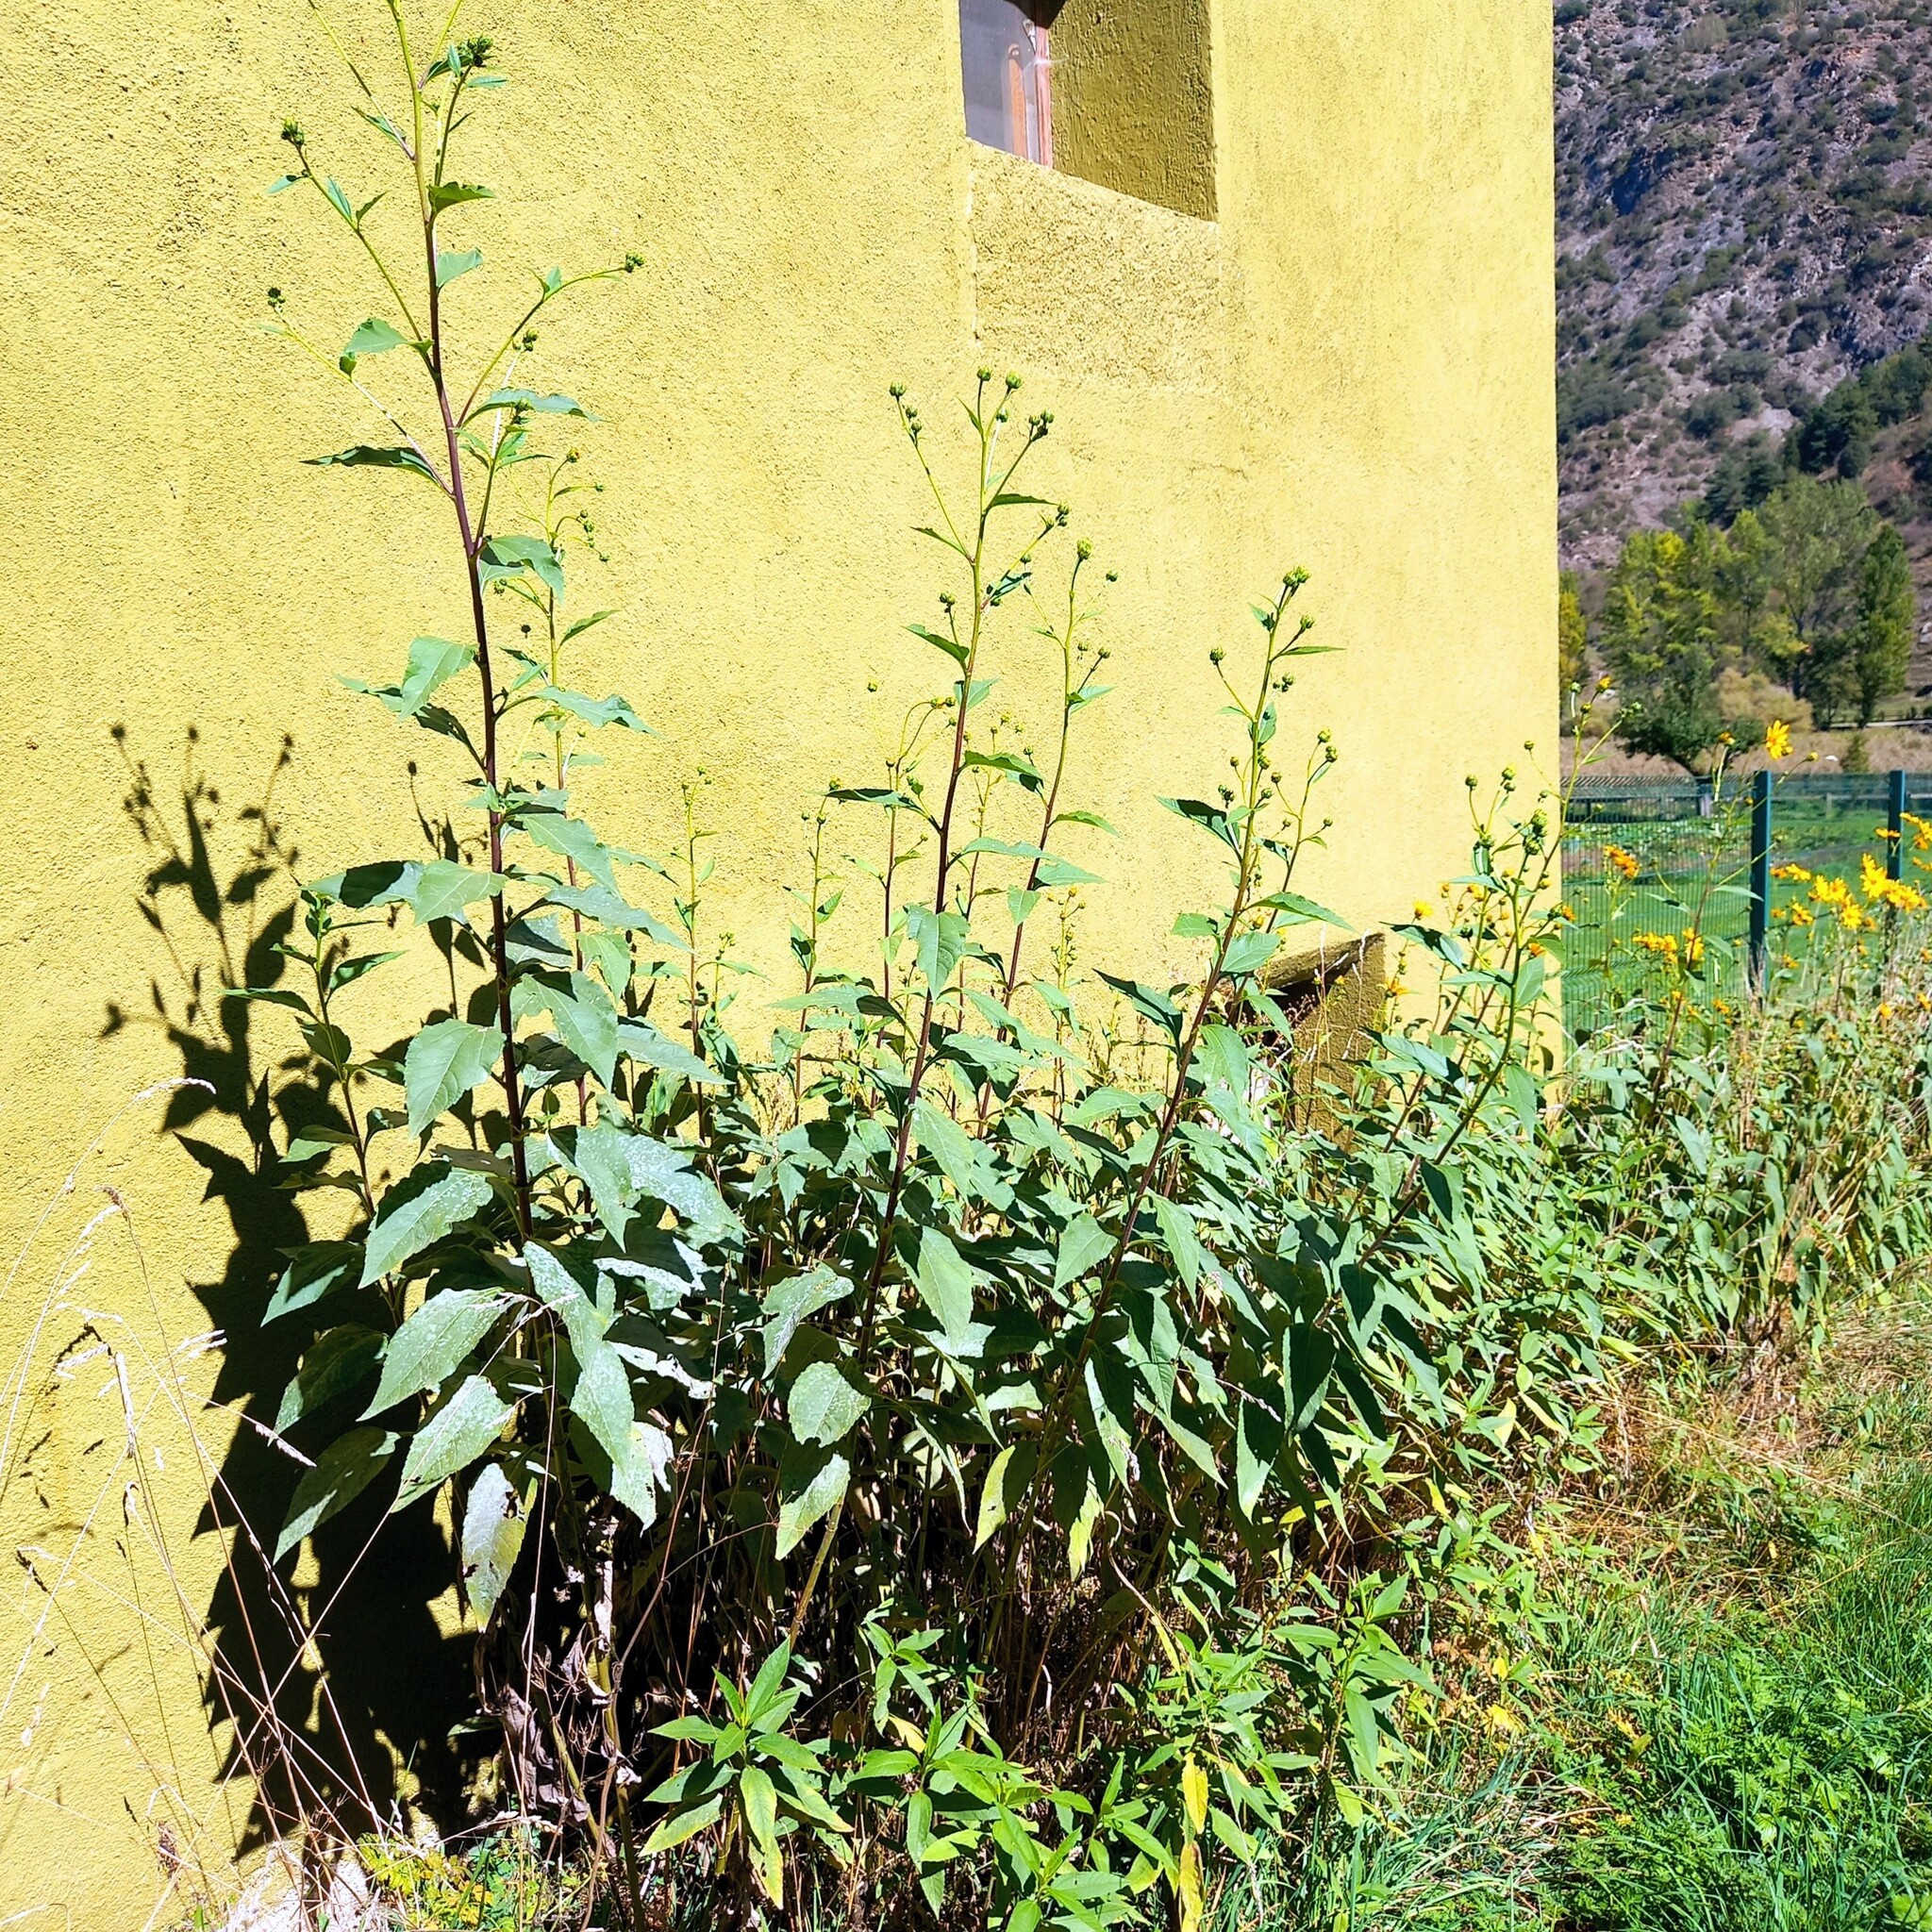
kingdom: Plantae
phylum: Tracheophyta
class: Magnoliopsida
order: Asterales
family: Asteraceae
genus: Helianthus
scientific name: Helianthus tuberosus
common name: Jerusalem artichoke
